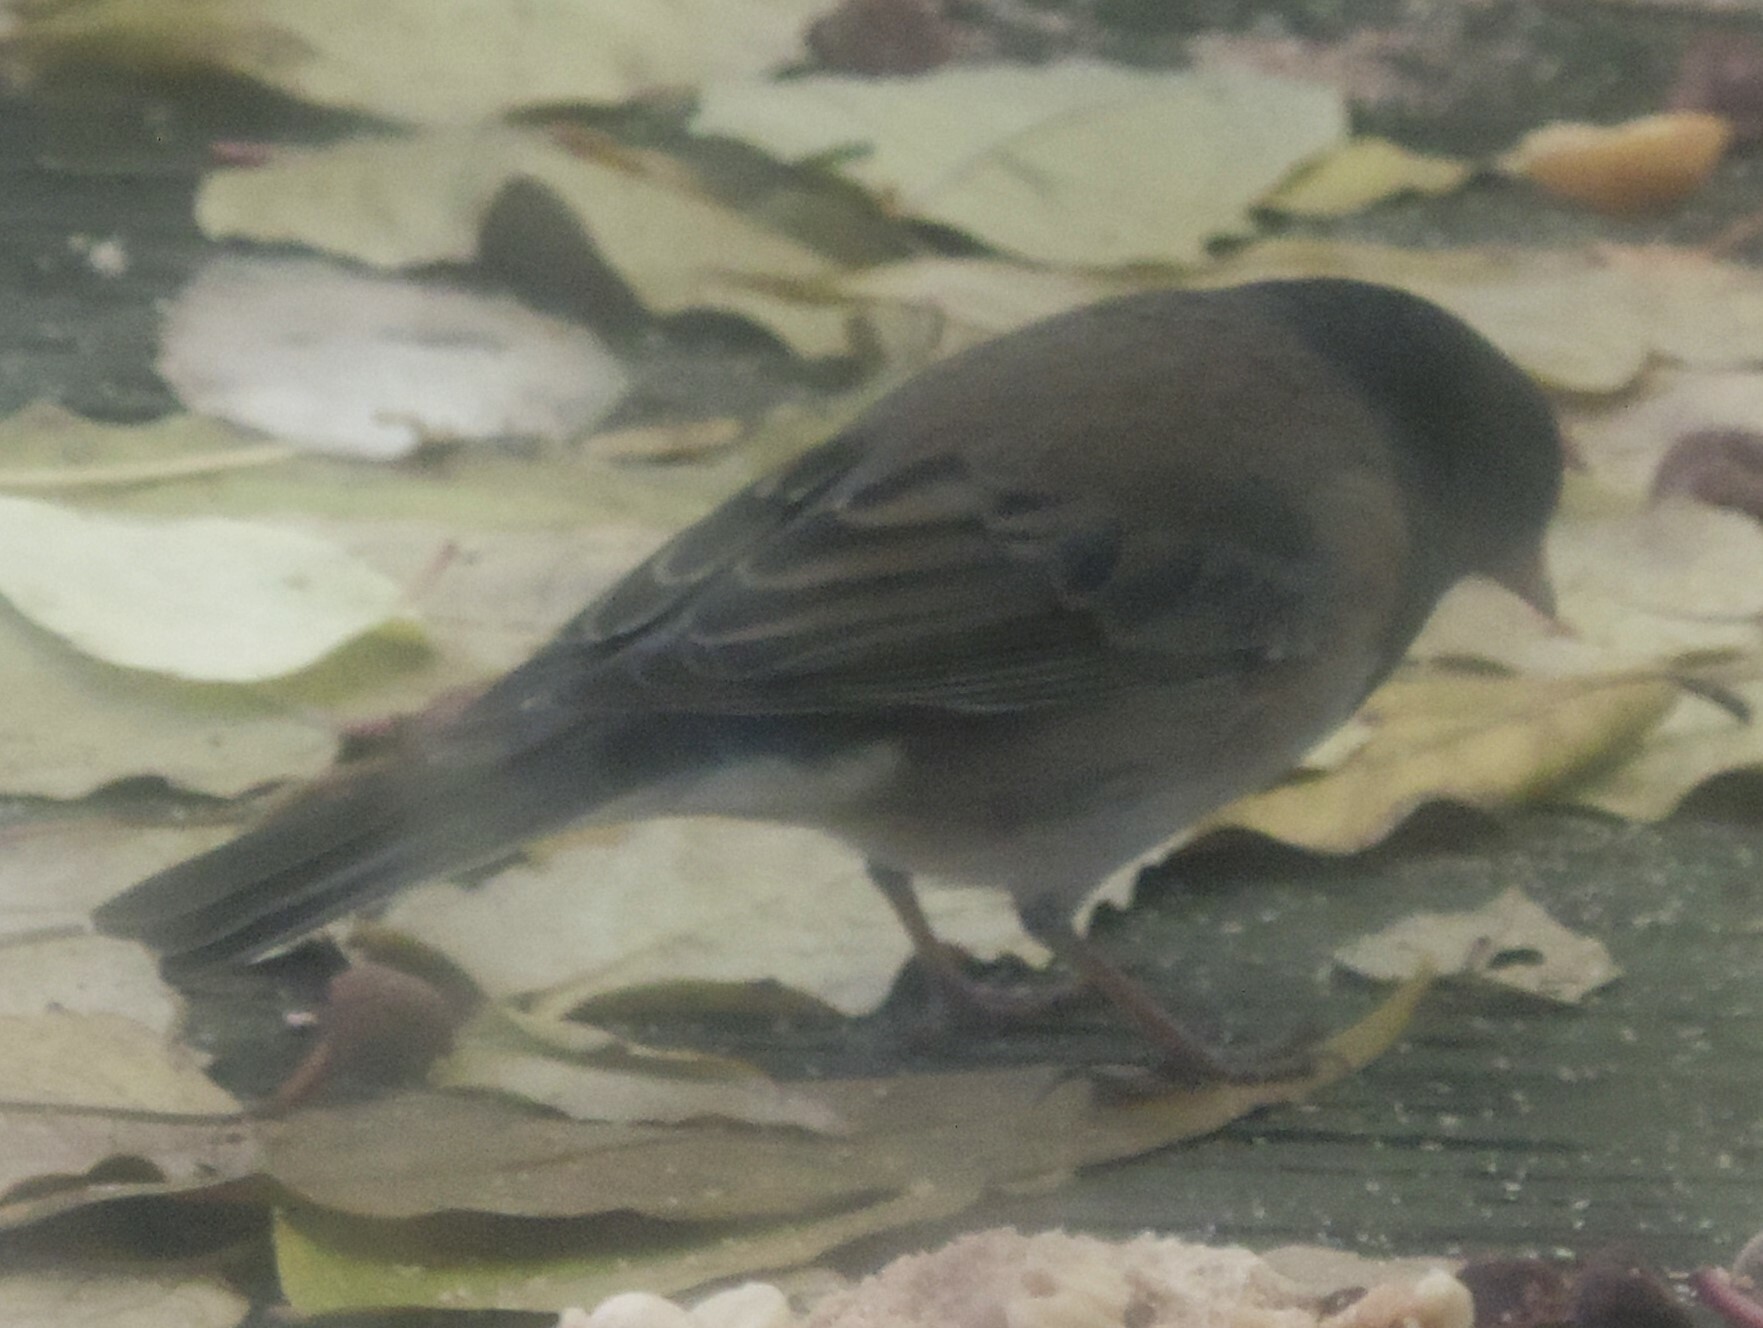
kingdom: Animalia
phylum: Chordata
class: Aves
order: Passeriformes
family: Passerellidae
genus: Junco
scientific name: Junco hyemalis
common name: Dark-eyed junco
